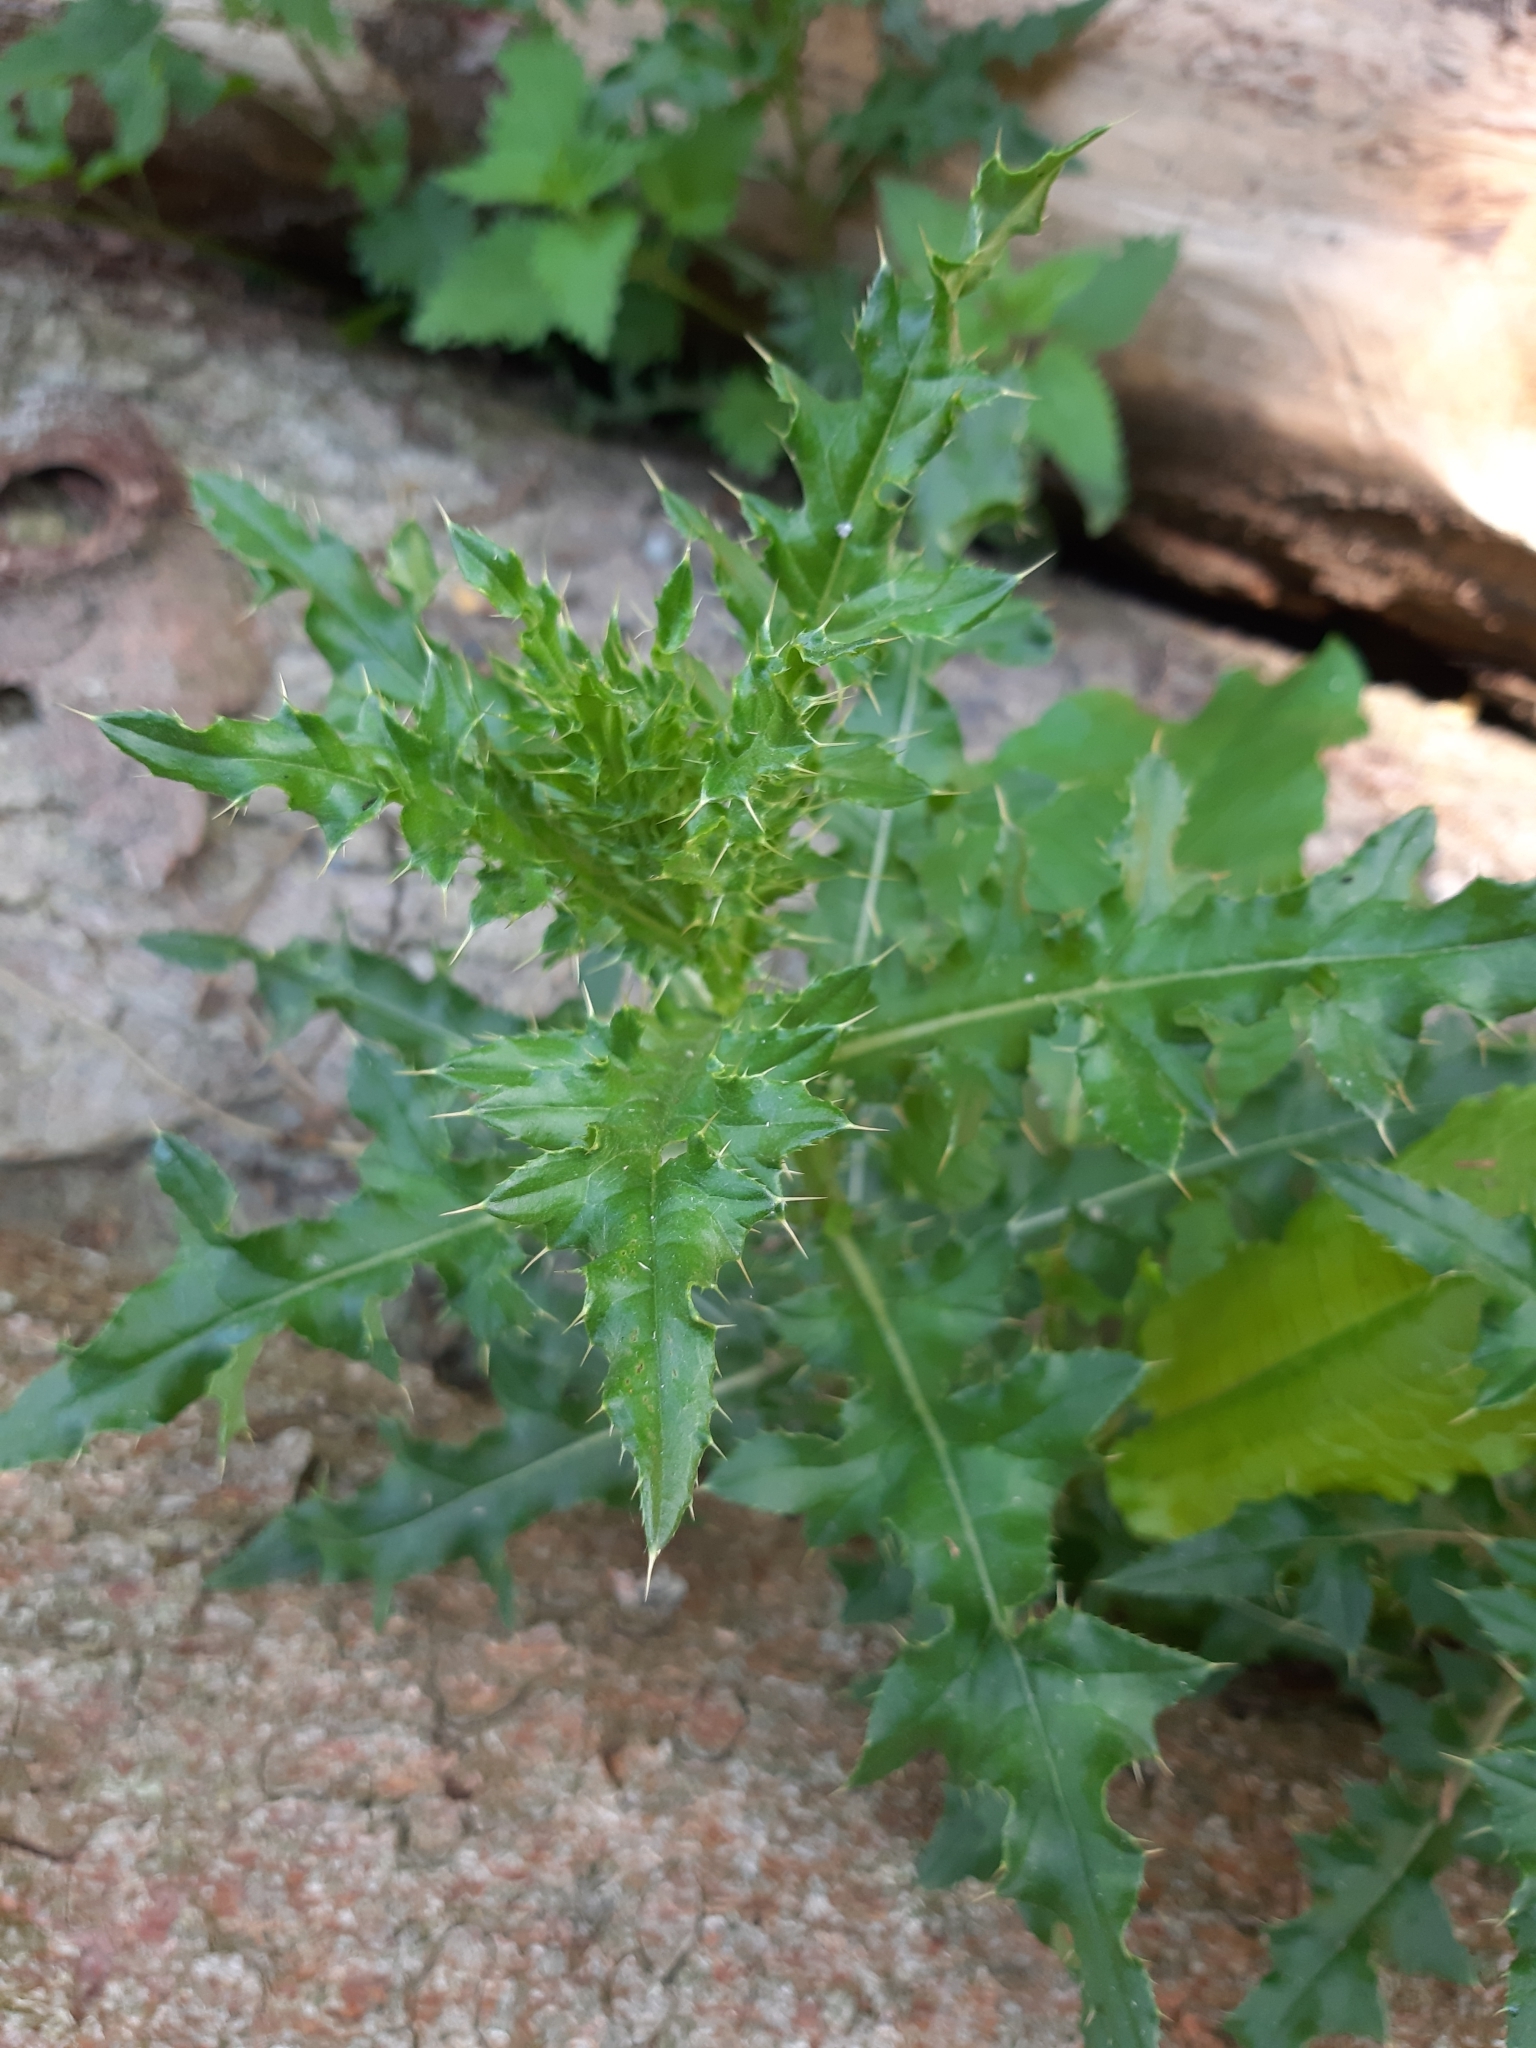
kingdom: Plantae
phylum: Tracheophyta
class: Magnoliopsida
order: Asterales
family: Asteraceae
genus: Cirsium
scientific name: Cirsium arvense
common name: Creeping thistle
